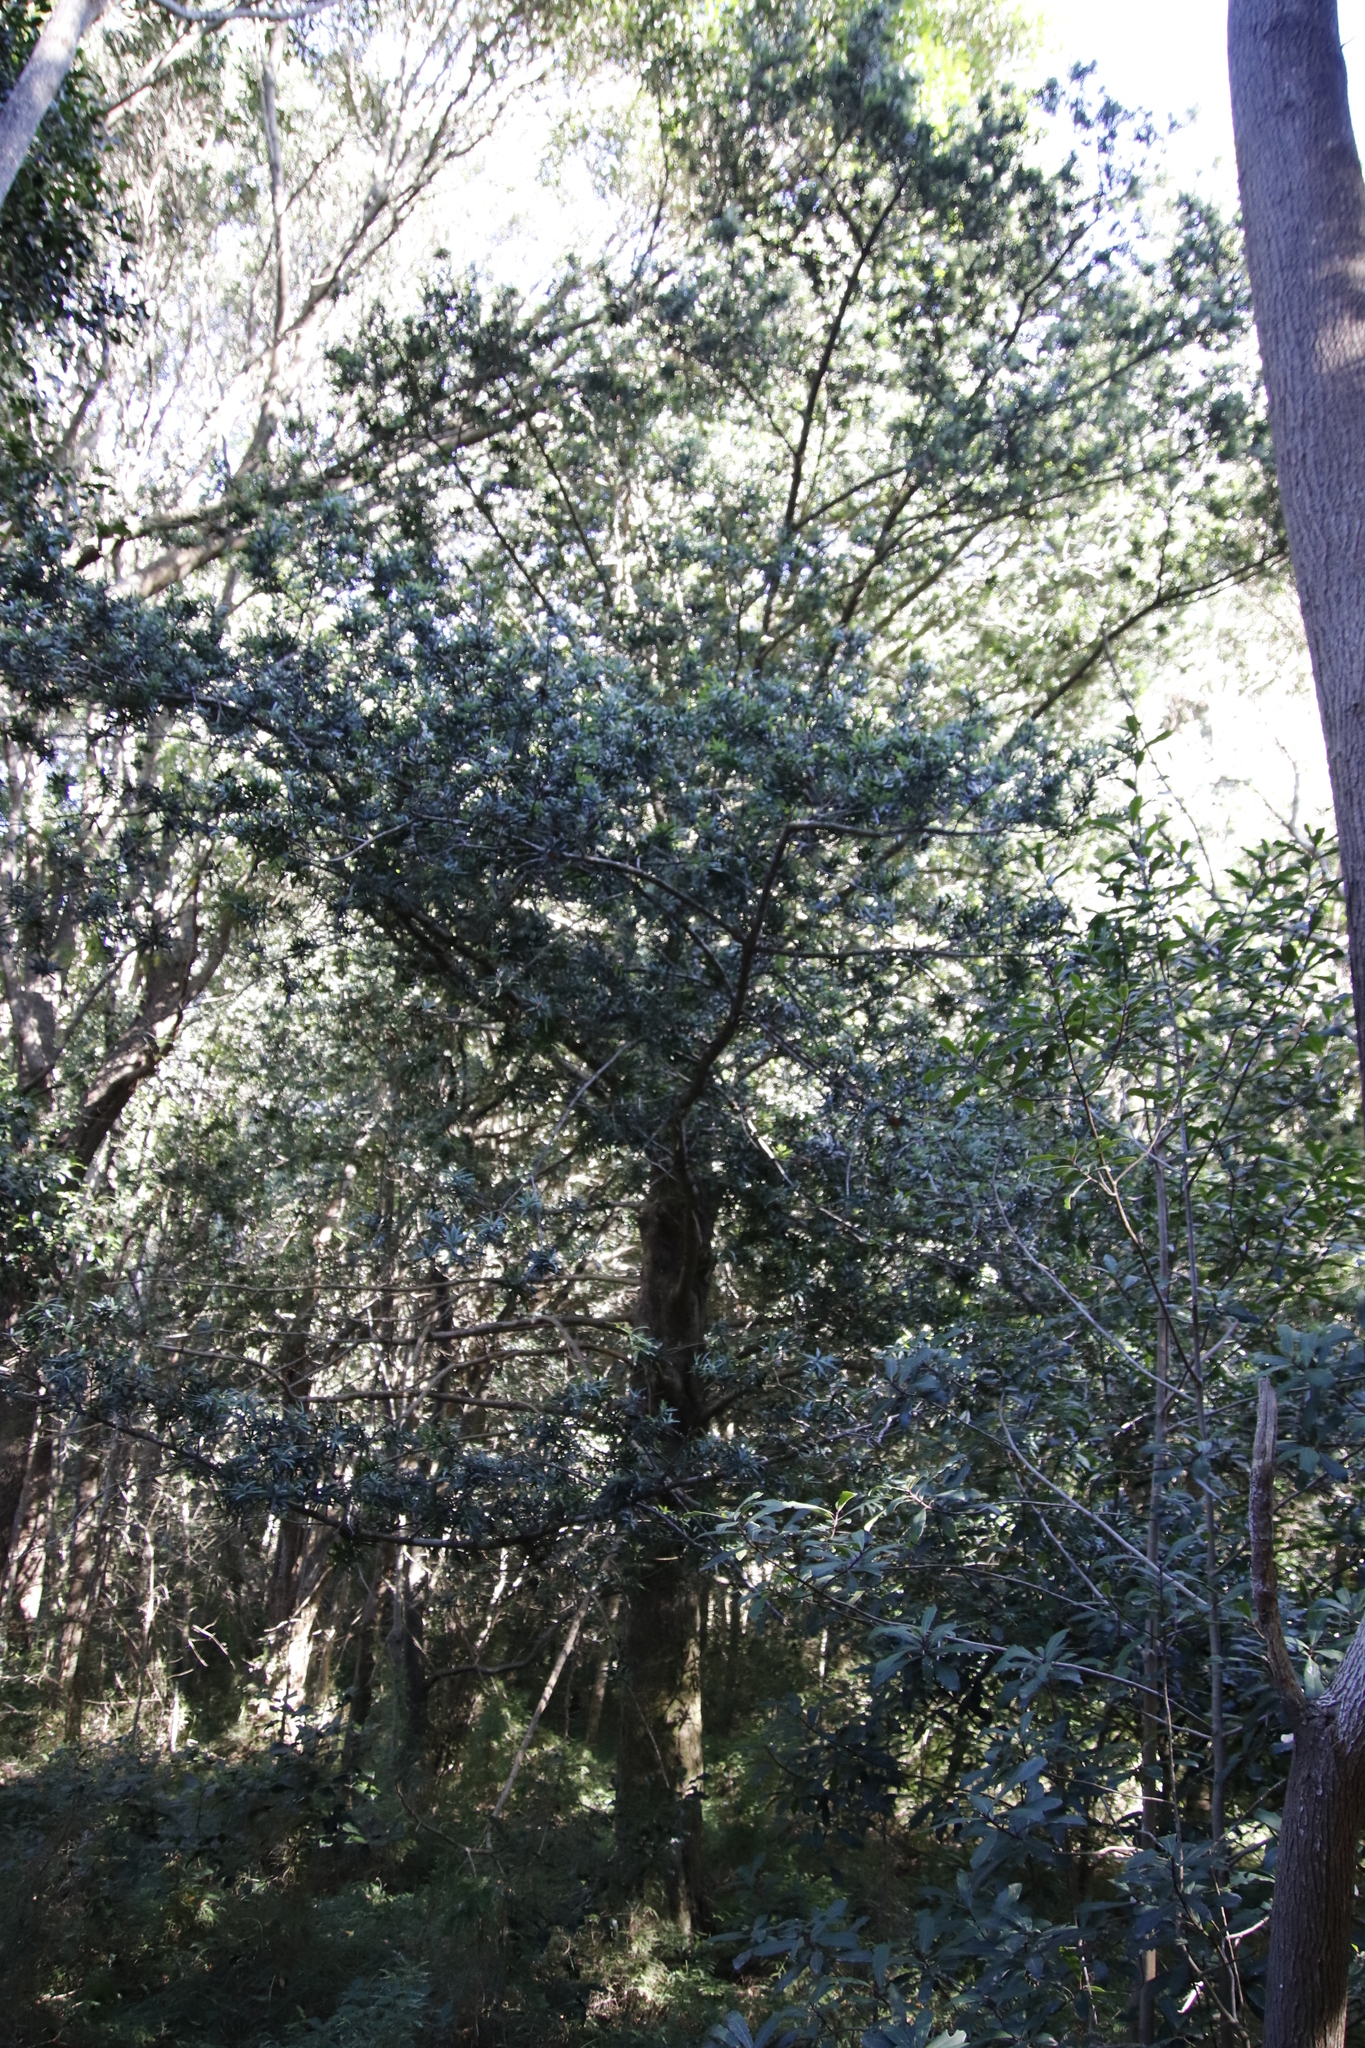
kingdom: Plantae
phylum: Tracheophyta
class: Pinopsida
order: Pinales
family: Podocarpaceae
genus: Podocarpus
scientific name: Podocarpus latifolius
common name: True yellowwood
